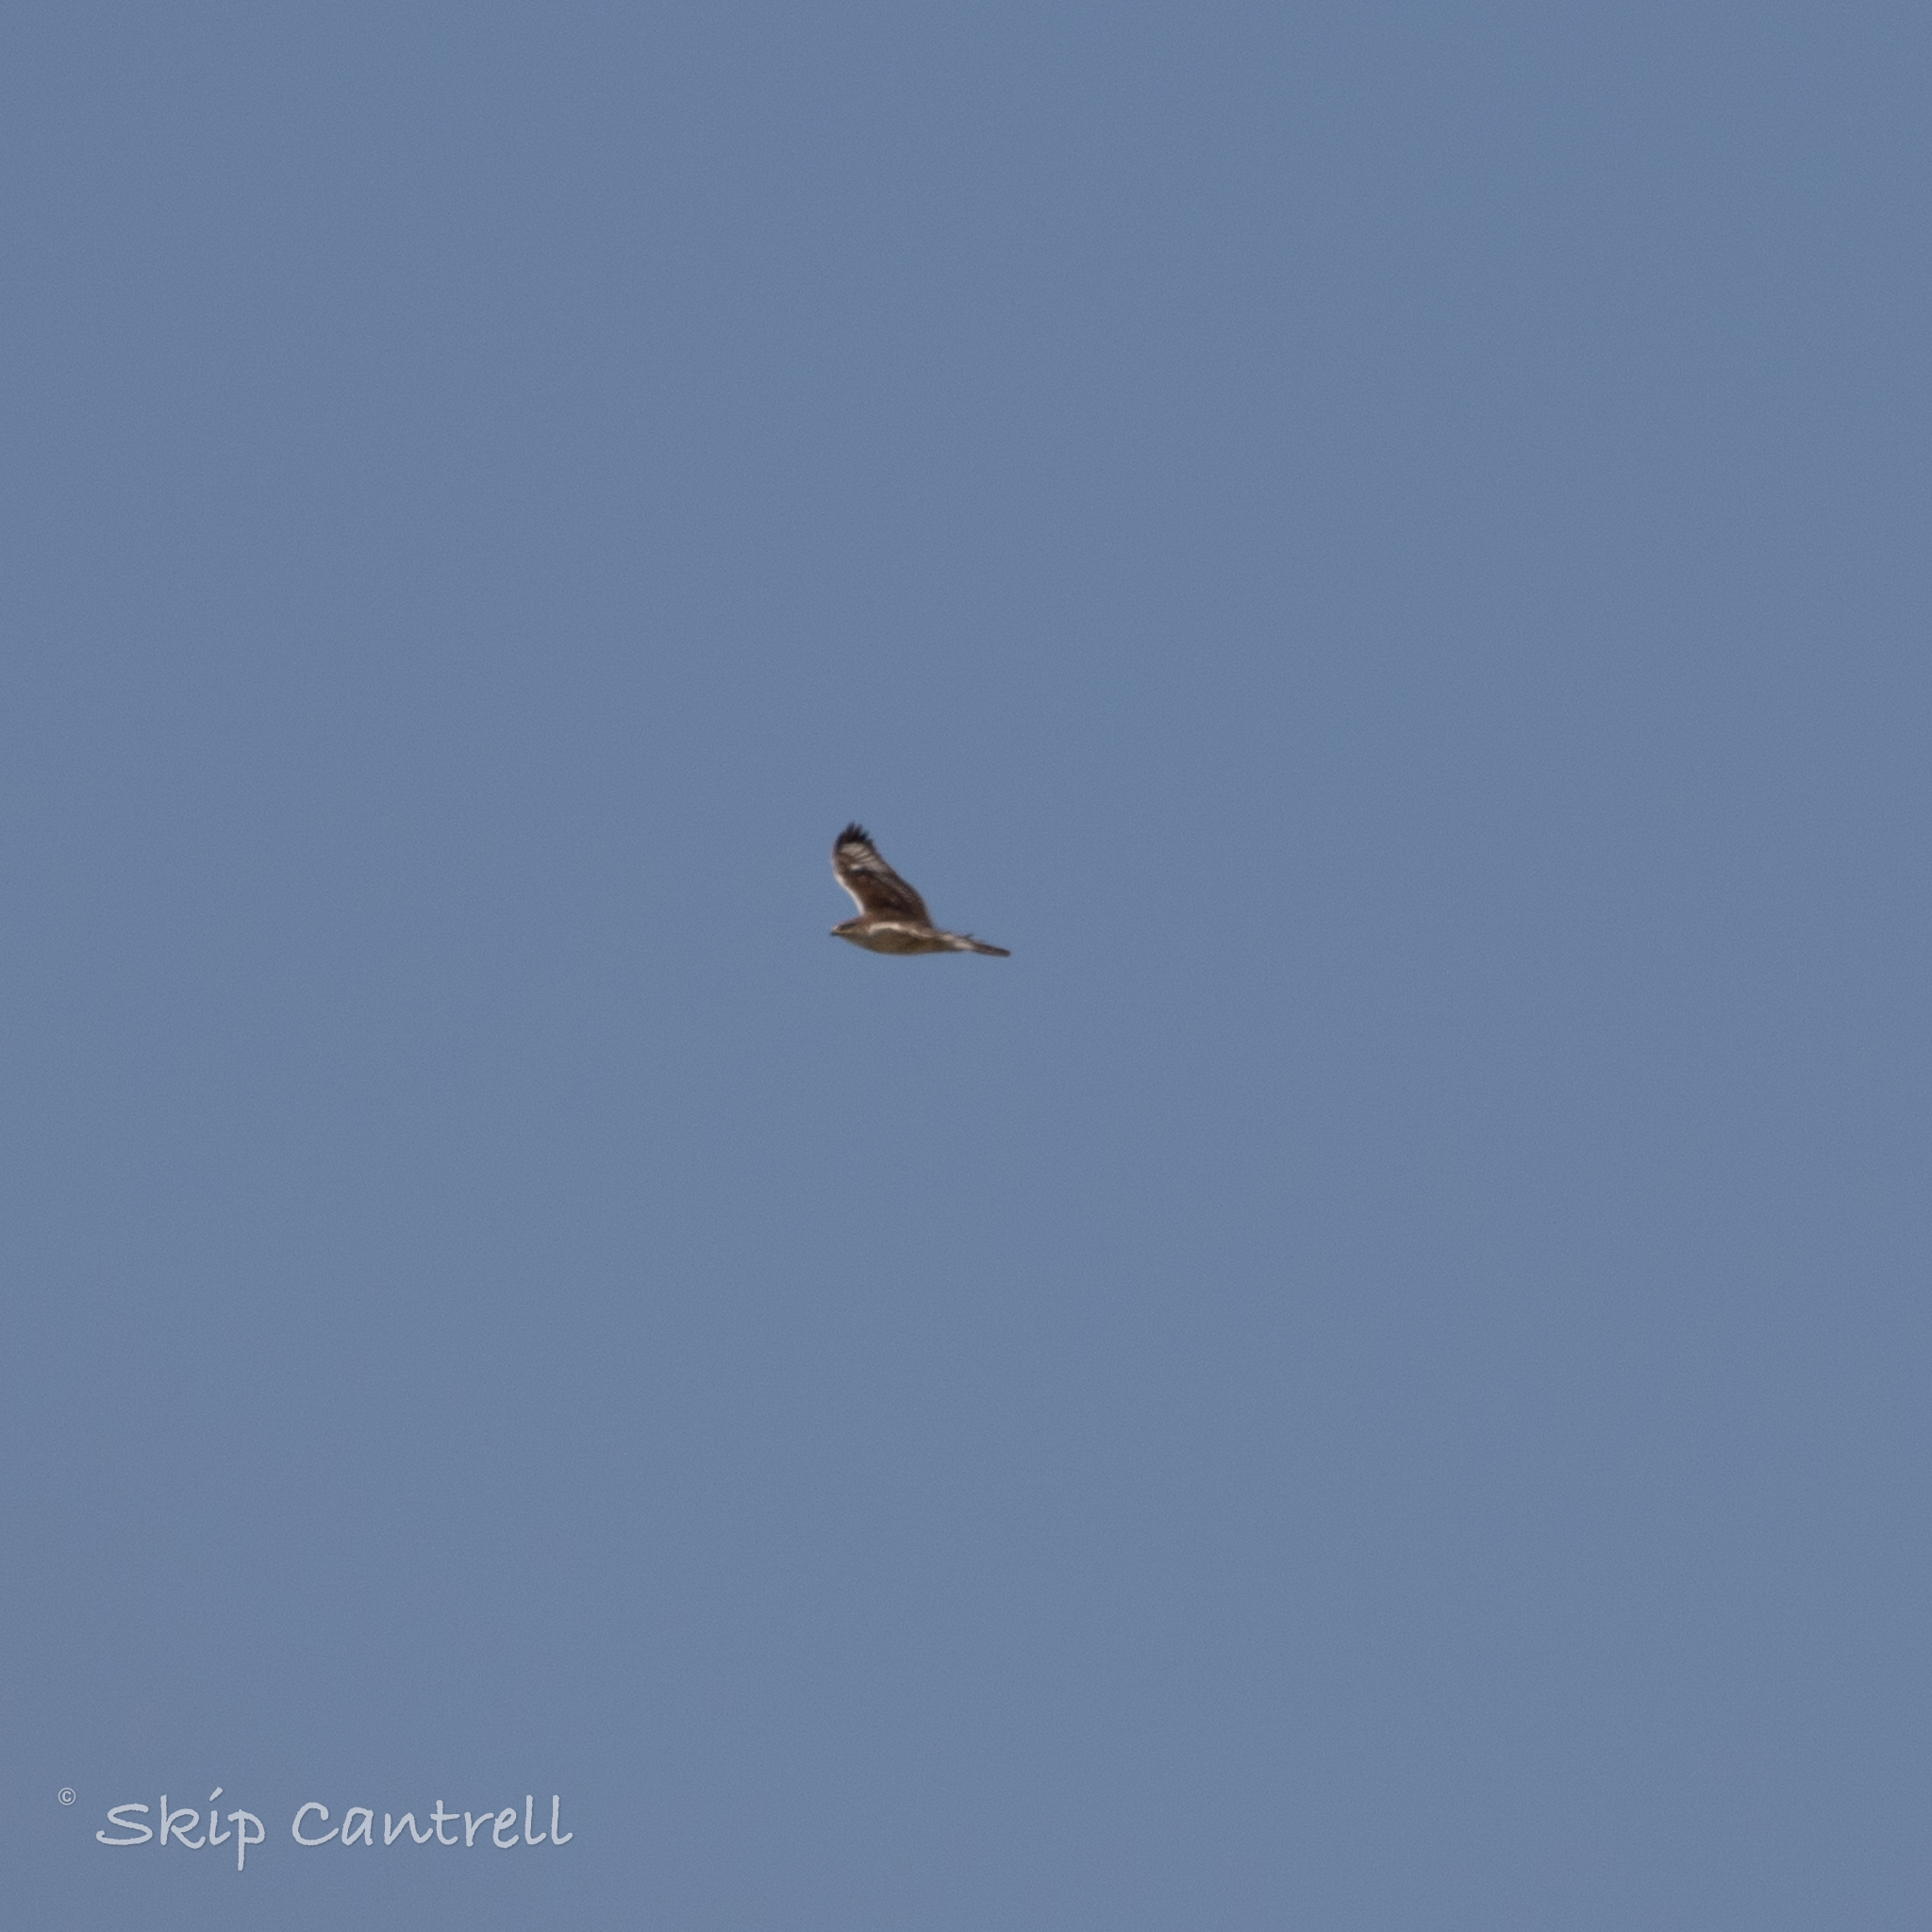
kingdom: Animalia
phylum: Chordata
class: Aves
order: Accipitriformes
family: Accipitridae
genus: Buteo
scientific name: Buteo regalis
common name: Ferruginous hawk
